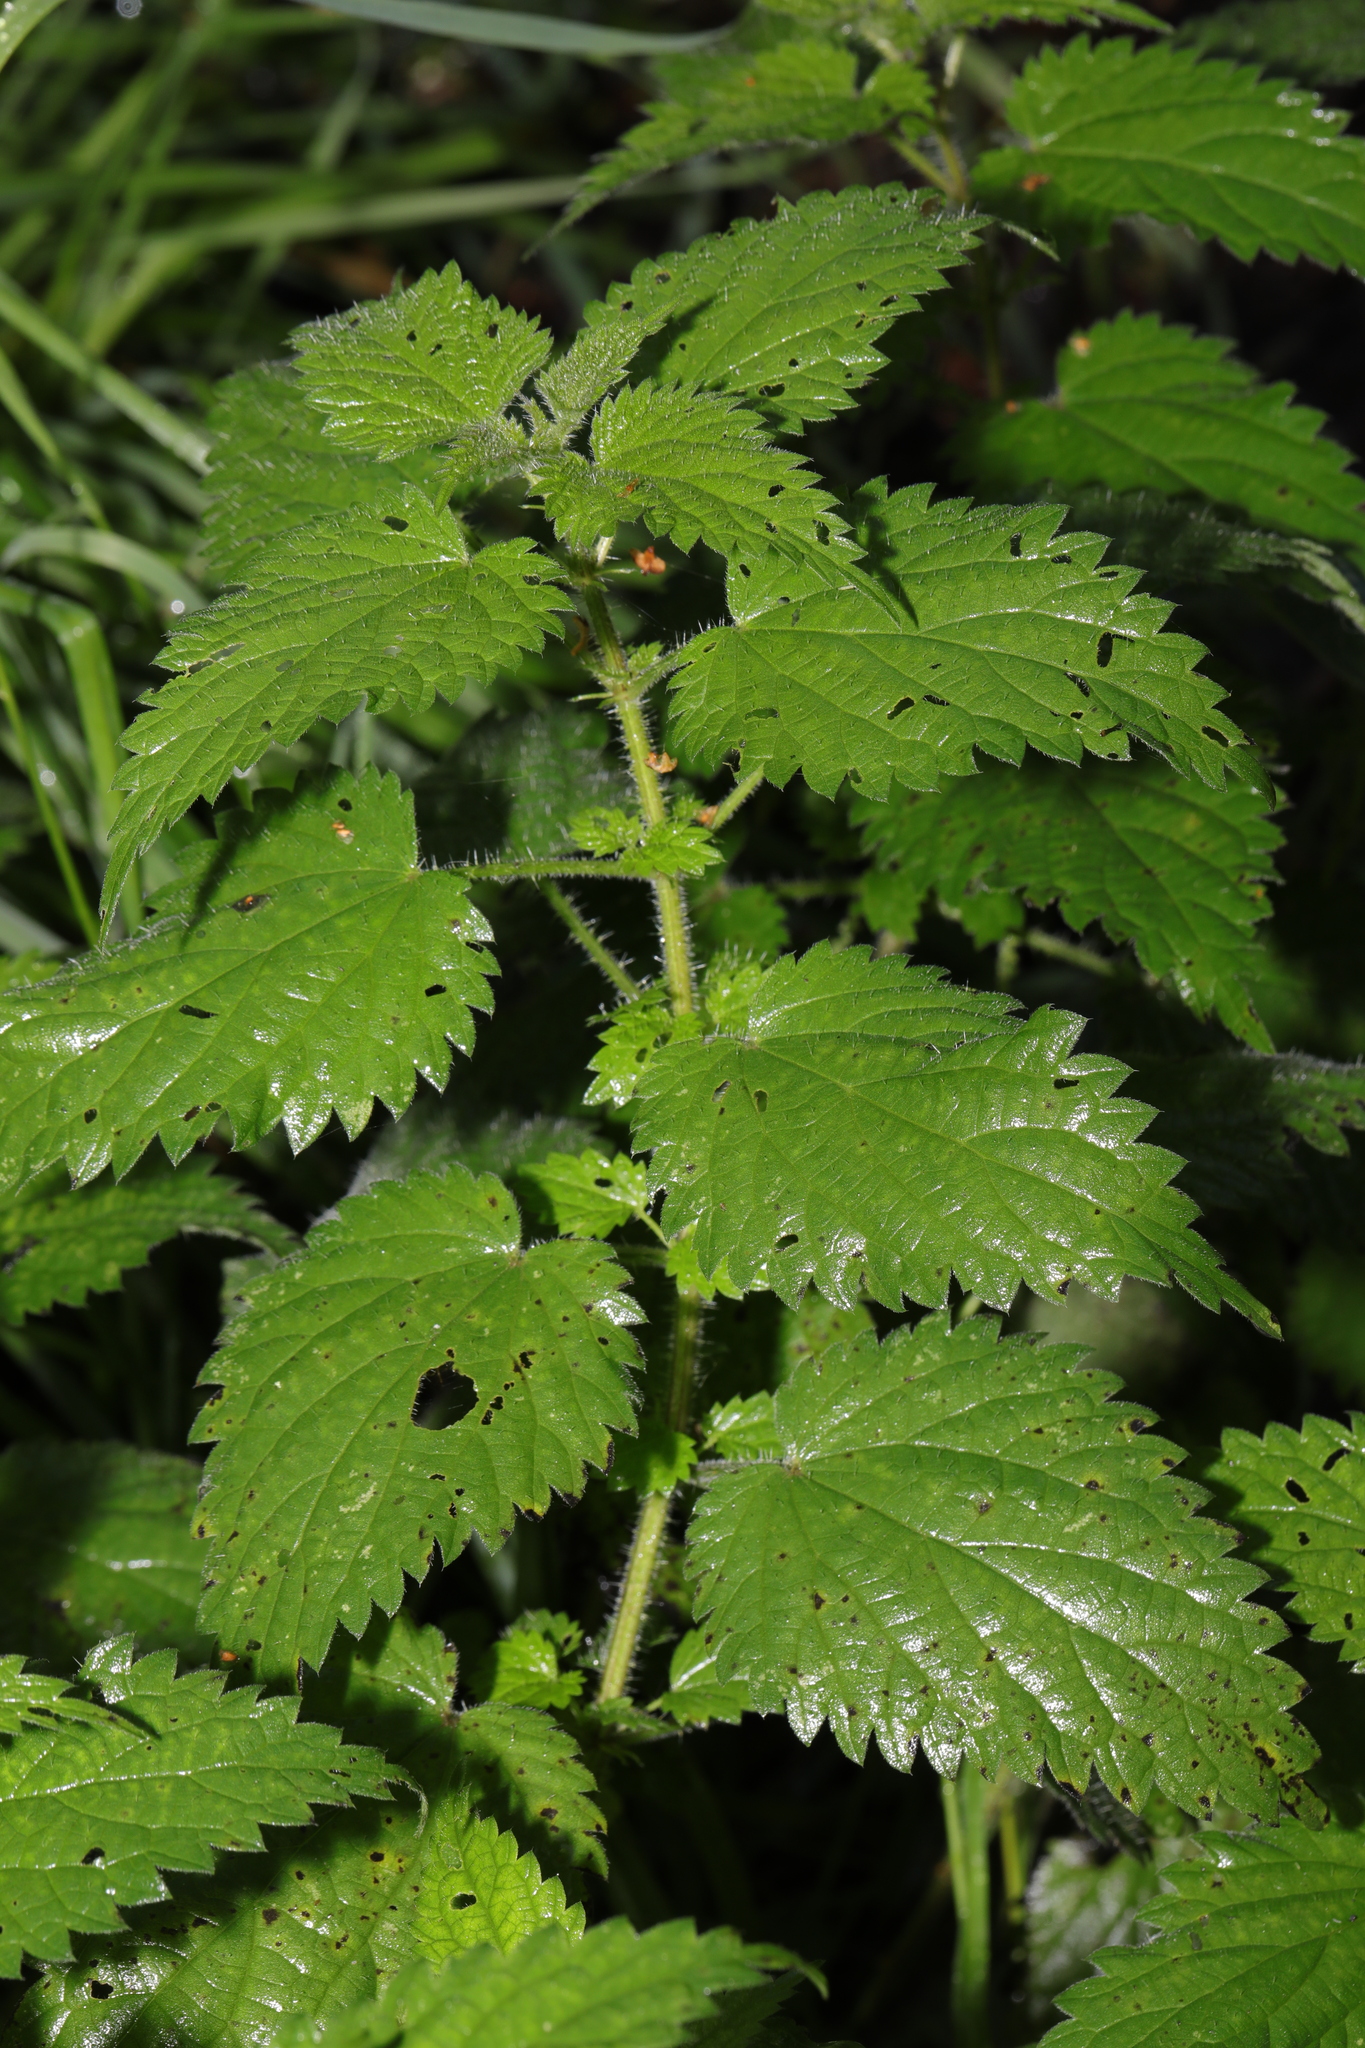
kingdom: Plantae
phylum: Tracheophyta
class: Magnoliopsida
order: Rosales
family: Urticaceae
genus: Urtica
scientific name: Urtica dioica
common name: Common nettle
